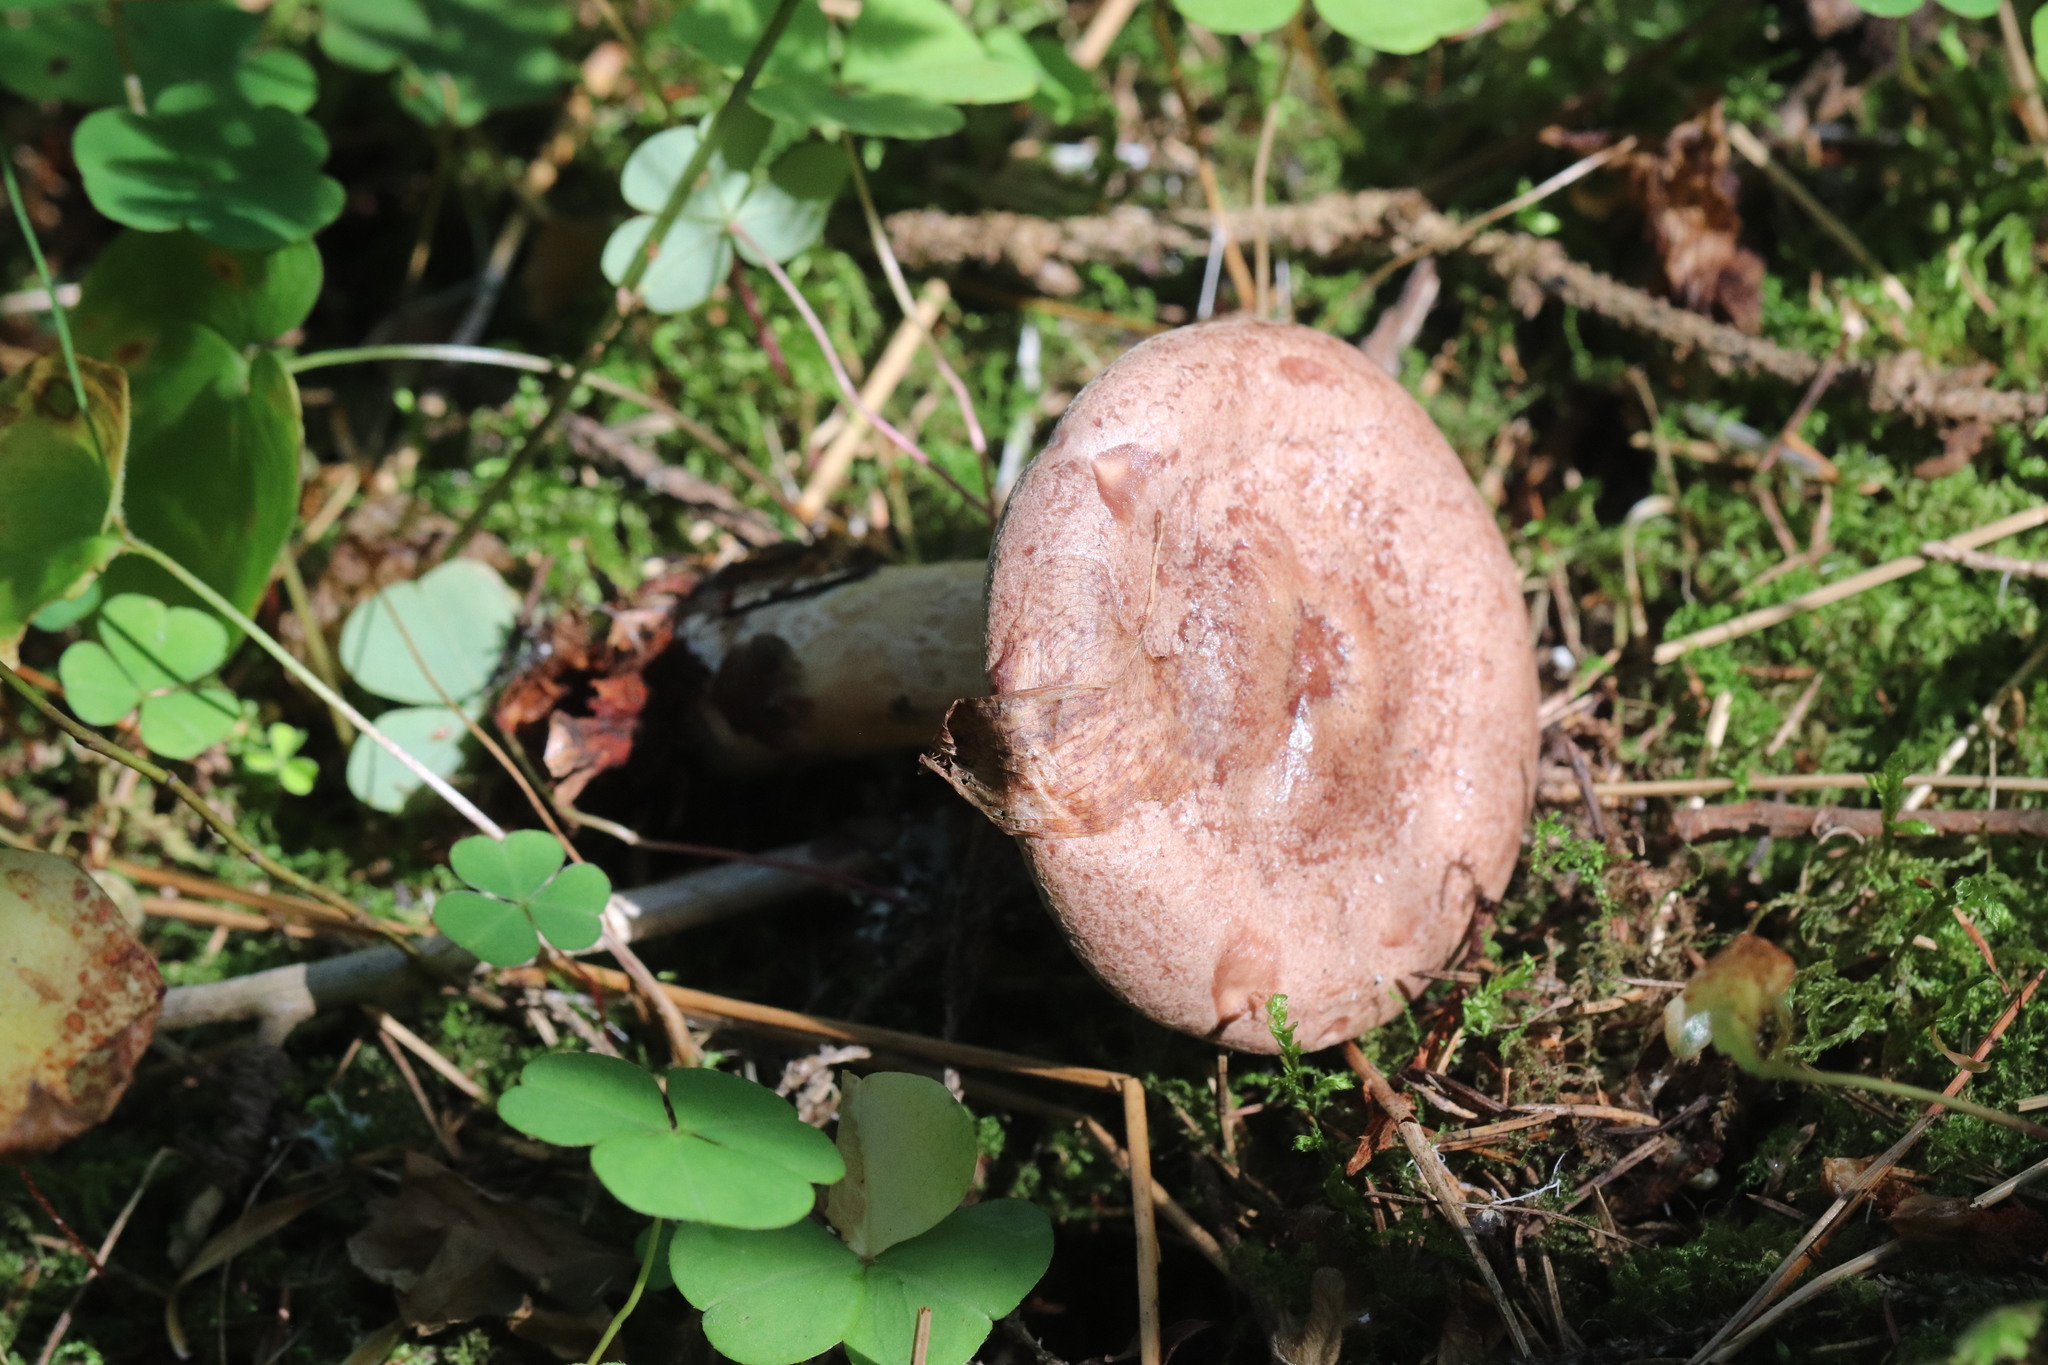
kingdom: Fungi
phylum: Basidiomycota
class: Agaricomycetes
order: Russulales
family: Russulaceae
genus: Lactarius
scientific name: Lactarius trivialis
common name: Tacked milkcap
